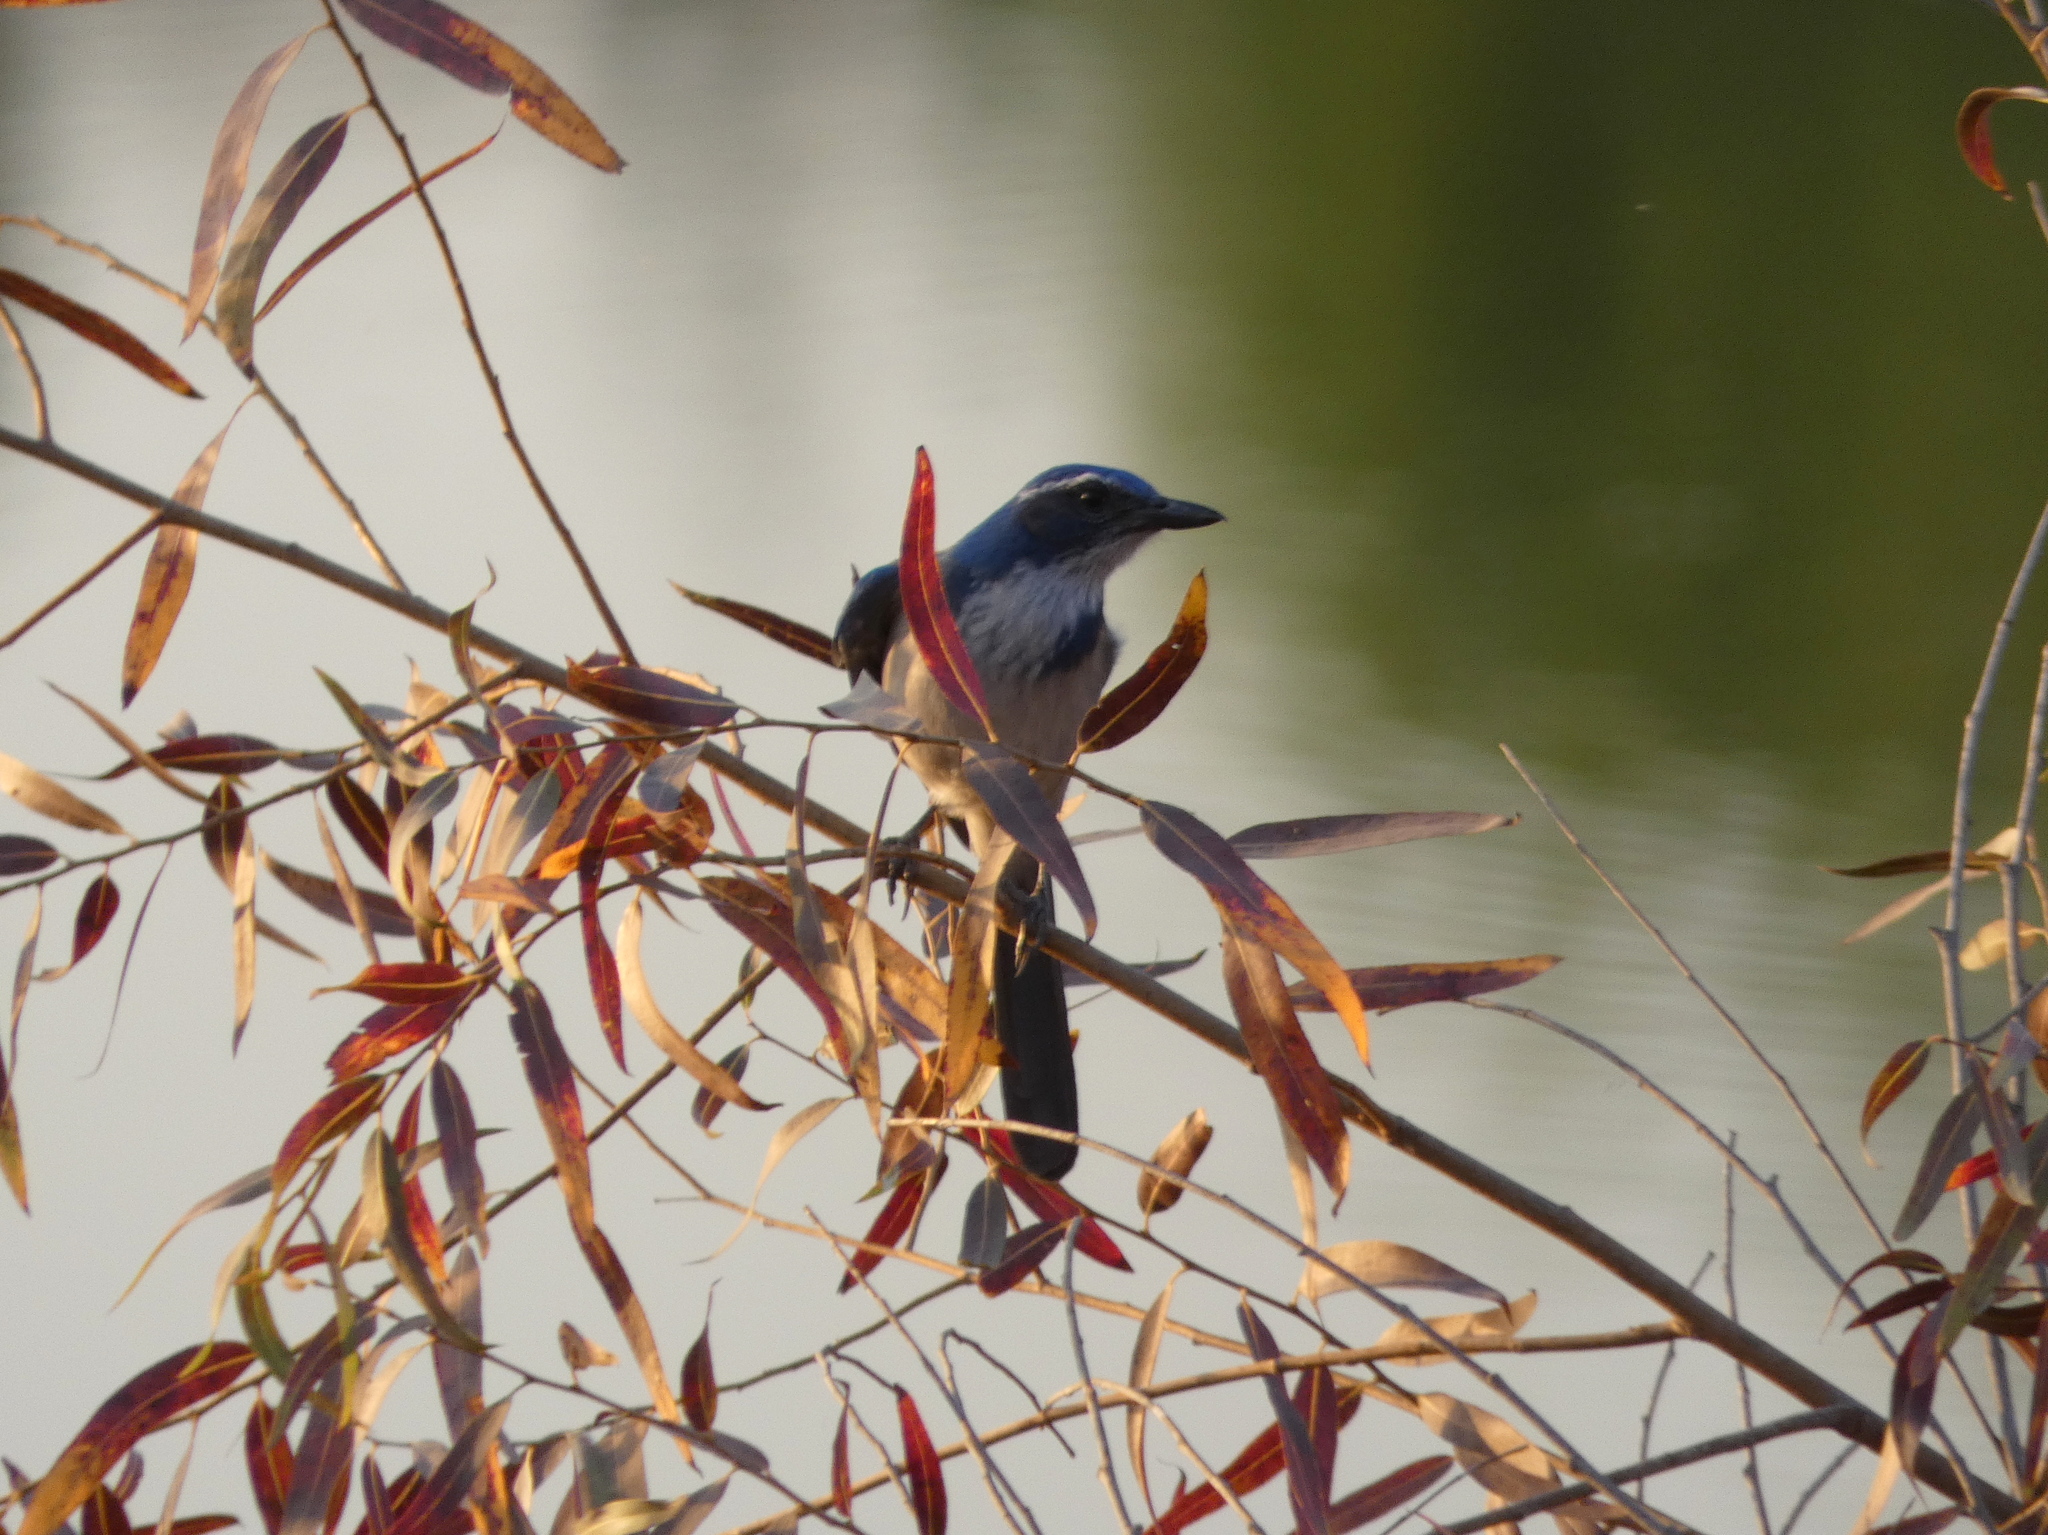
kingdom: Animalia
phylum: Chordata
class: Aves
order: Passeriformes
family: Corvidae
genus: Aphelocoma
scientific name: Aphelocoma californica
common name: California scrub-jay
